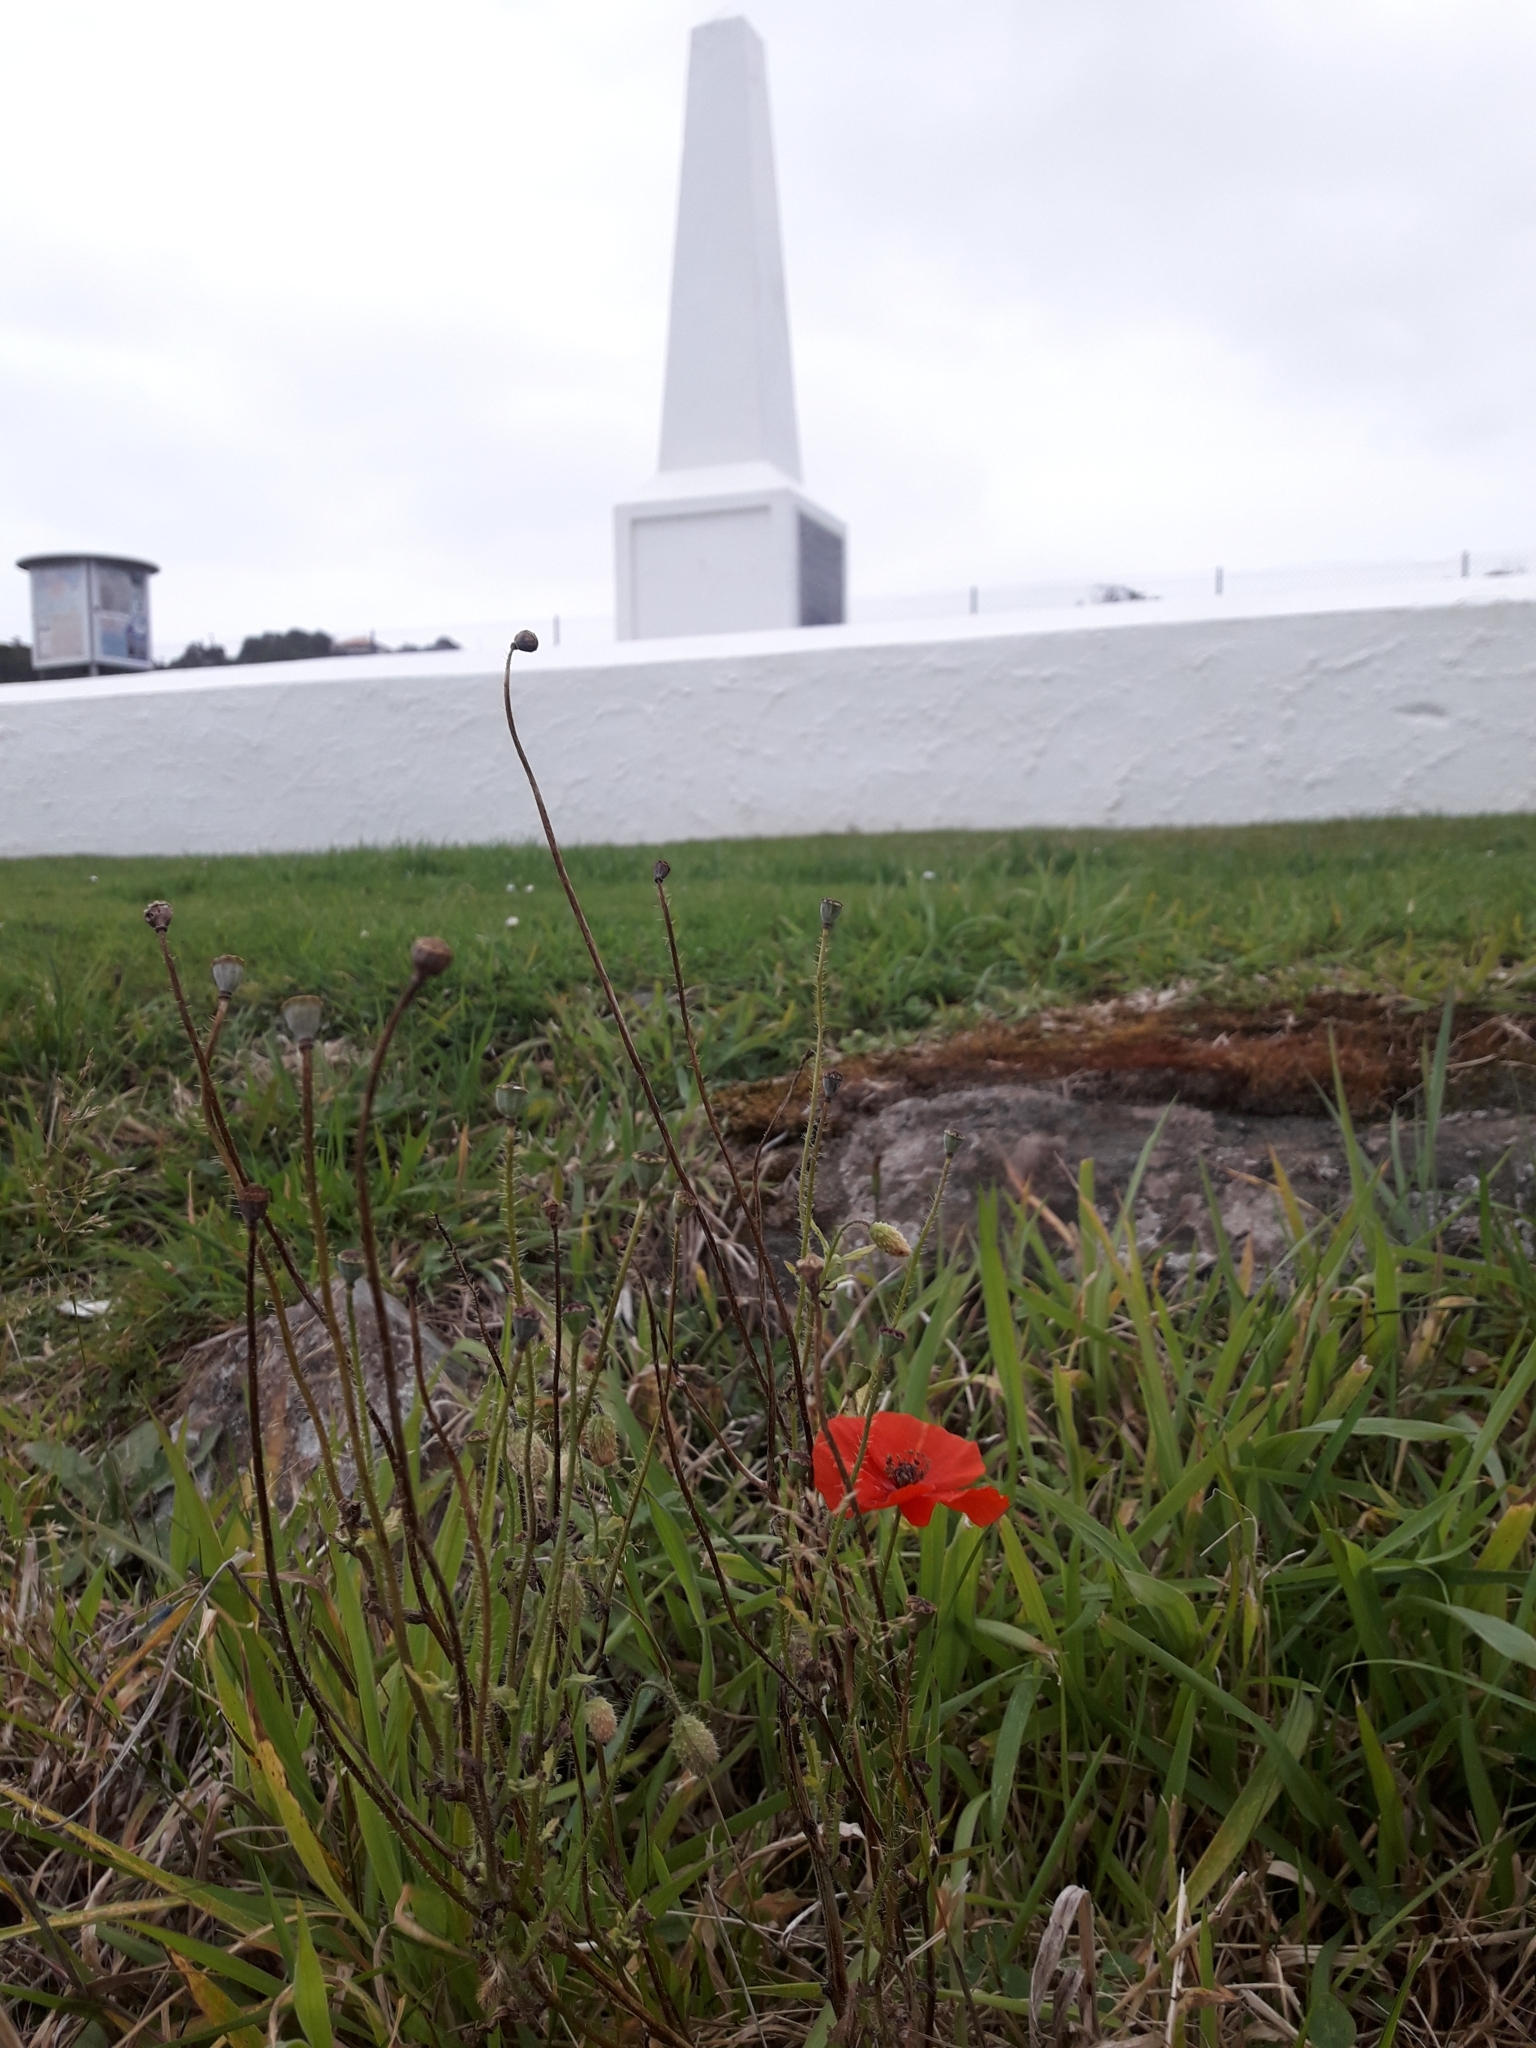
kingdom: Plantae
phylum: Tracheophyta
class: Magnoliopsida
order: Ranunculales
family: Papaveraceae
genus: Papaver
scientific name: Papaver rhoeas
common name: Corn poppy
